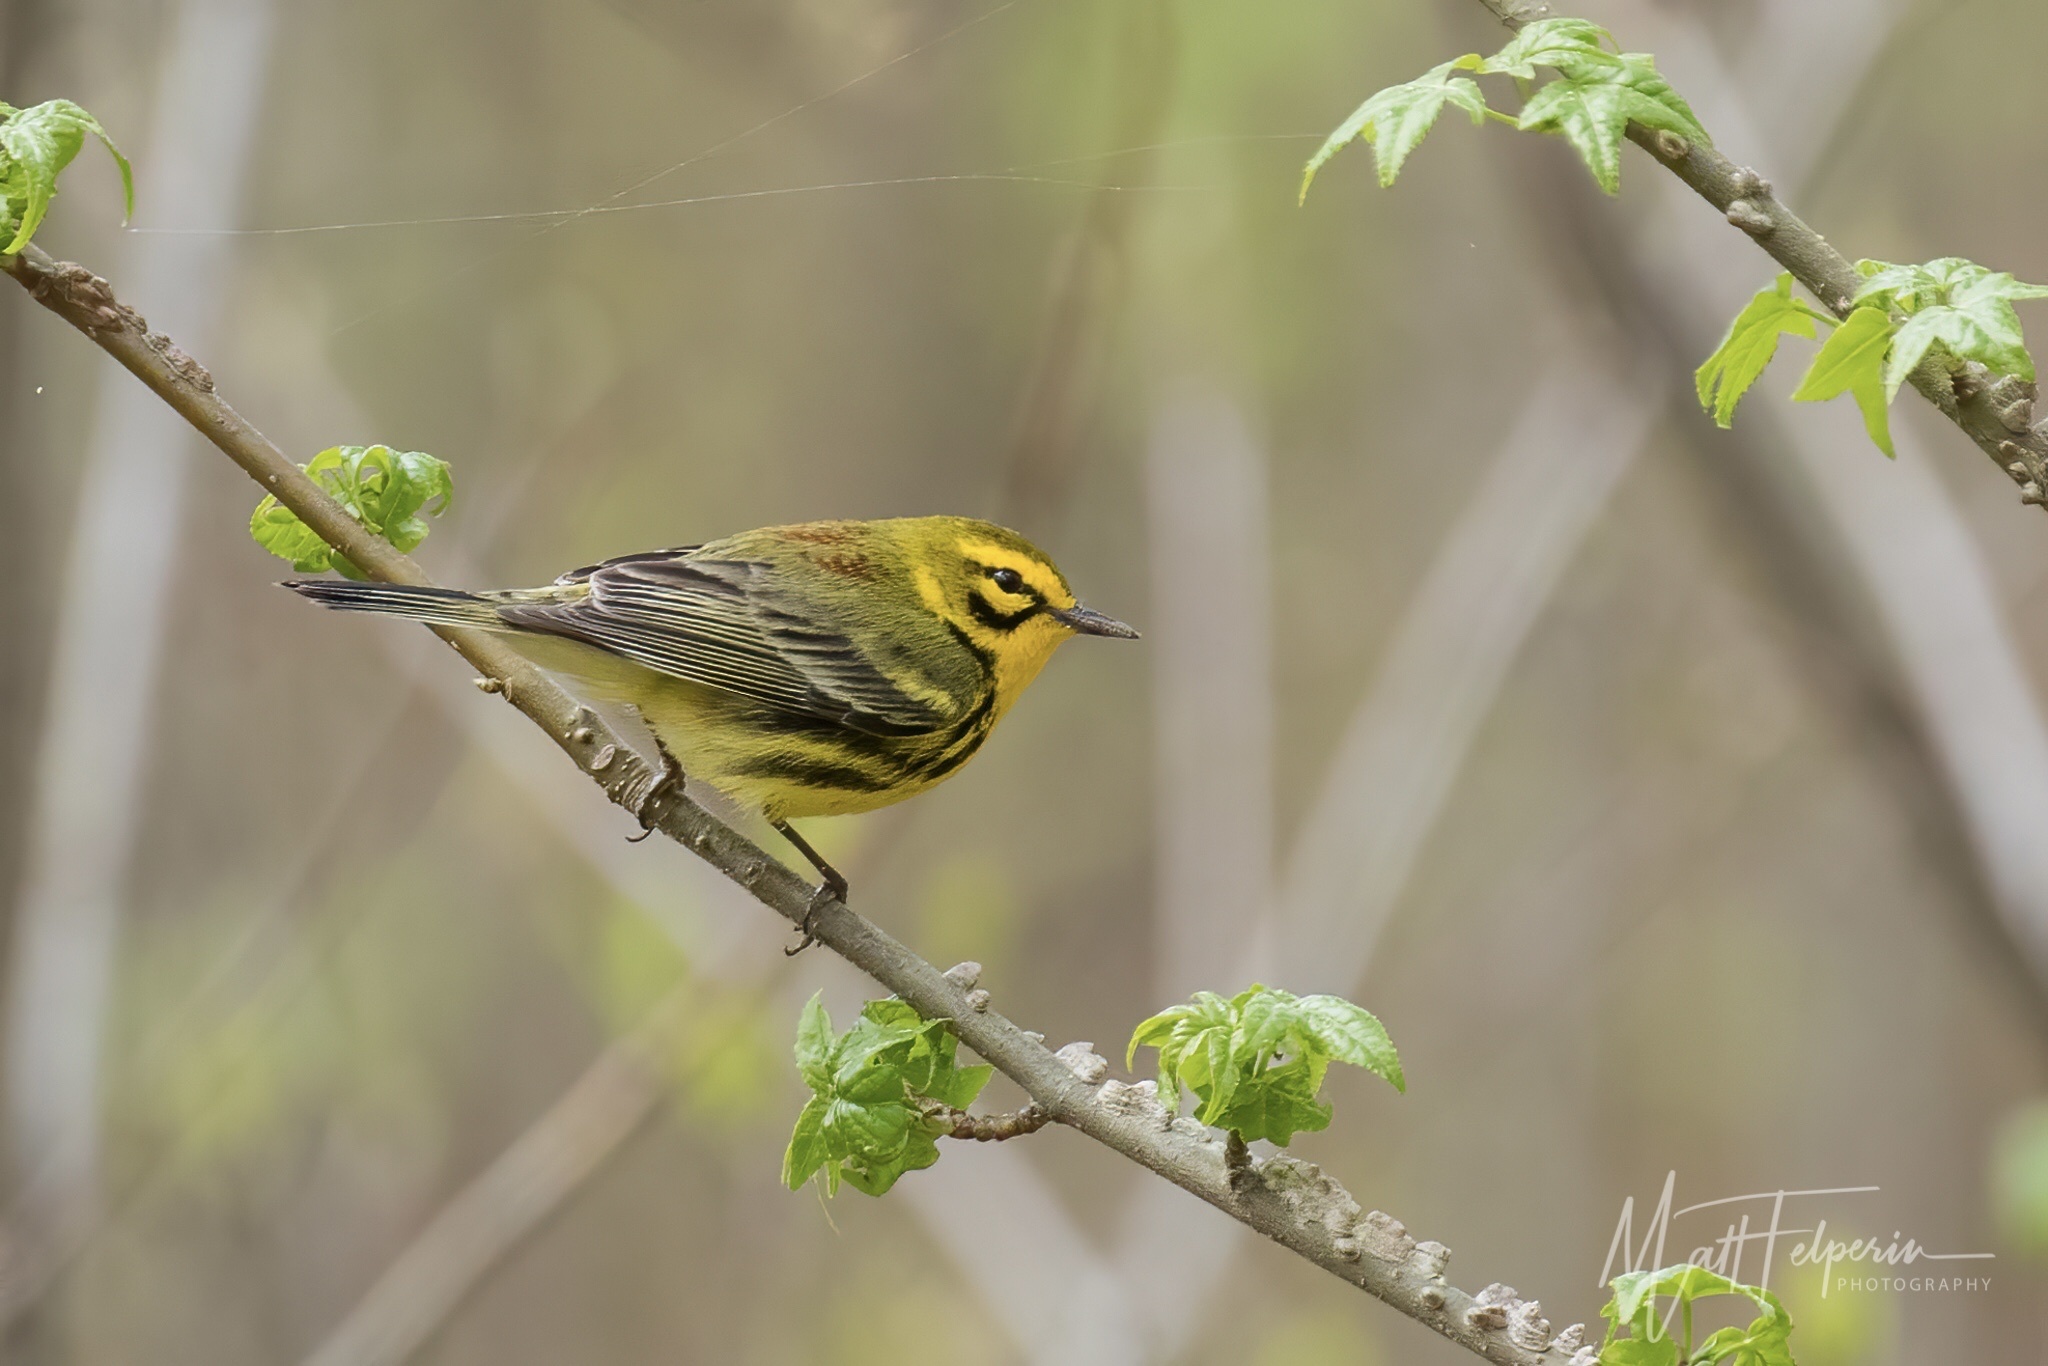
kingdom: Animalia
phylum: Chordata
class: Aves
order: Passeriformes
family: Parulidae
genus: Setophaga
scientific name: Setophaga discolor
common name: Prairie warbler
